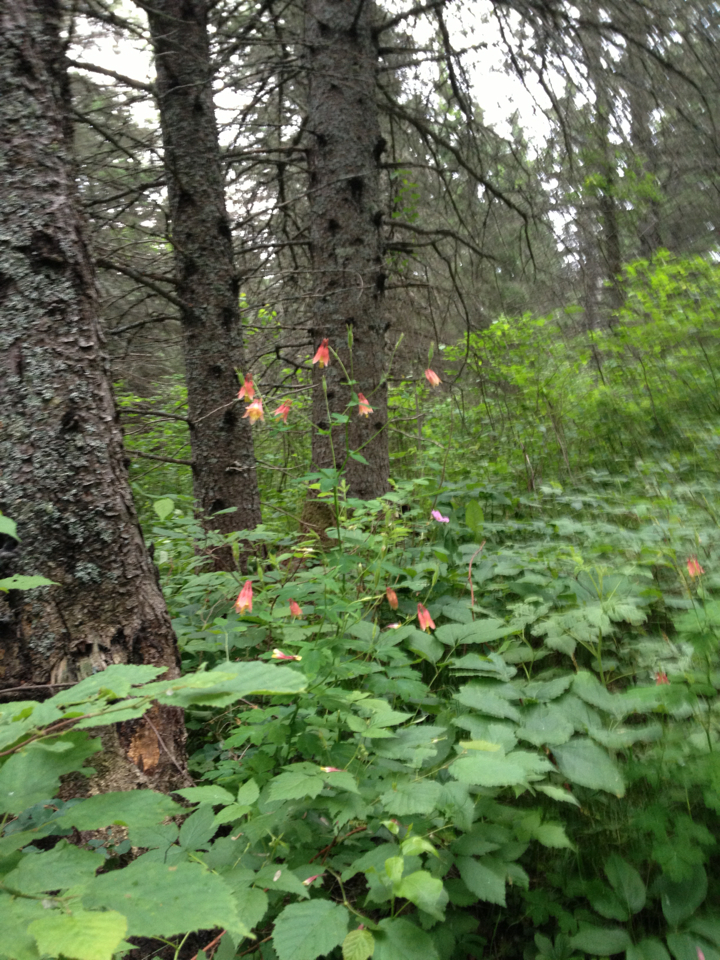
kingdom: Plantae
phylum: Tracheophyta
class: Magnoliopsida
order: Ranunculales
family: Ranunculaceae
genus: Aquilegia
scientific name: Aquilegia canadensis
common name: American columbine
